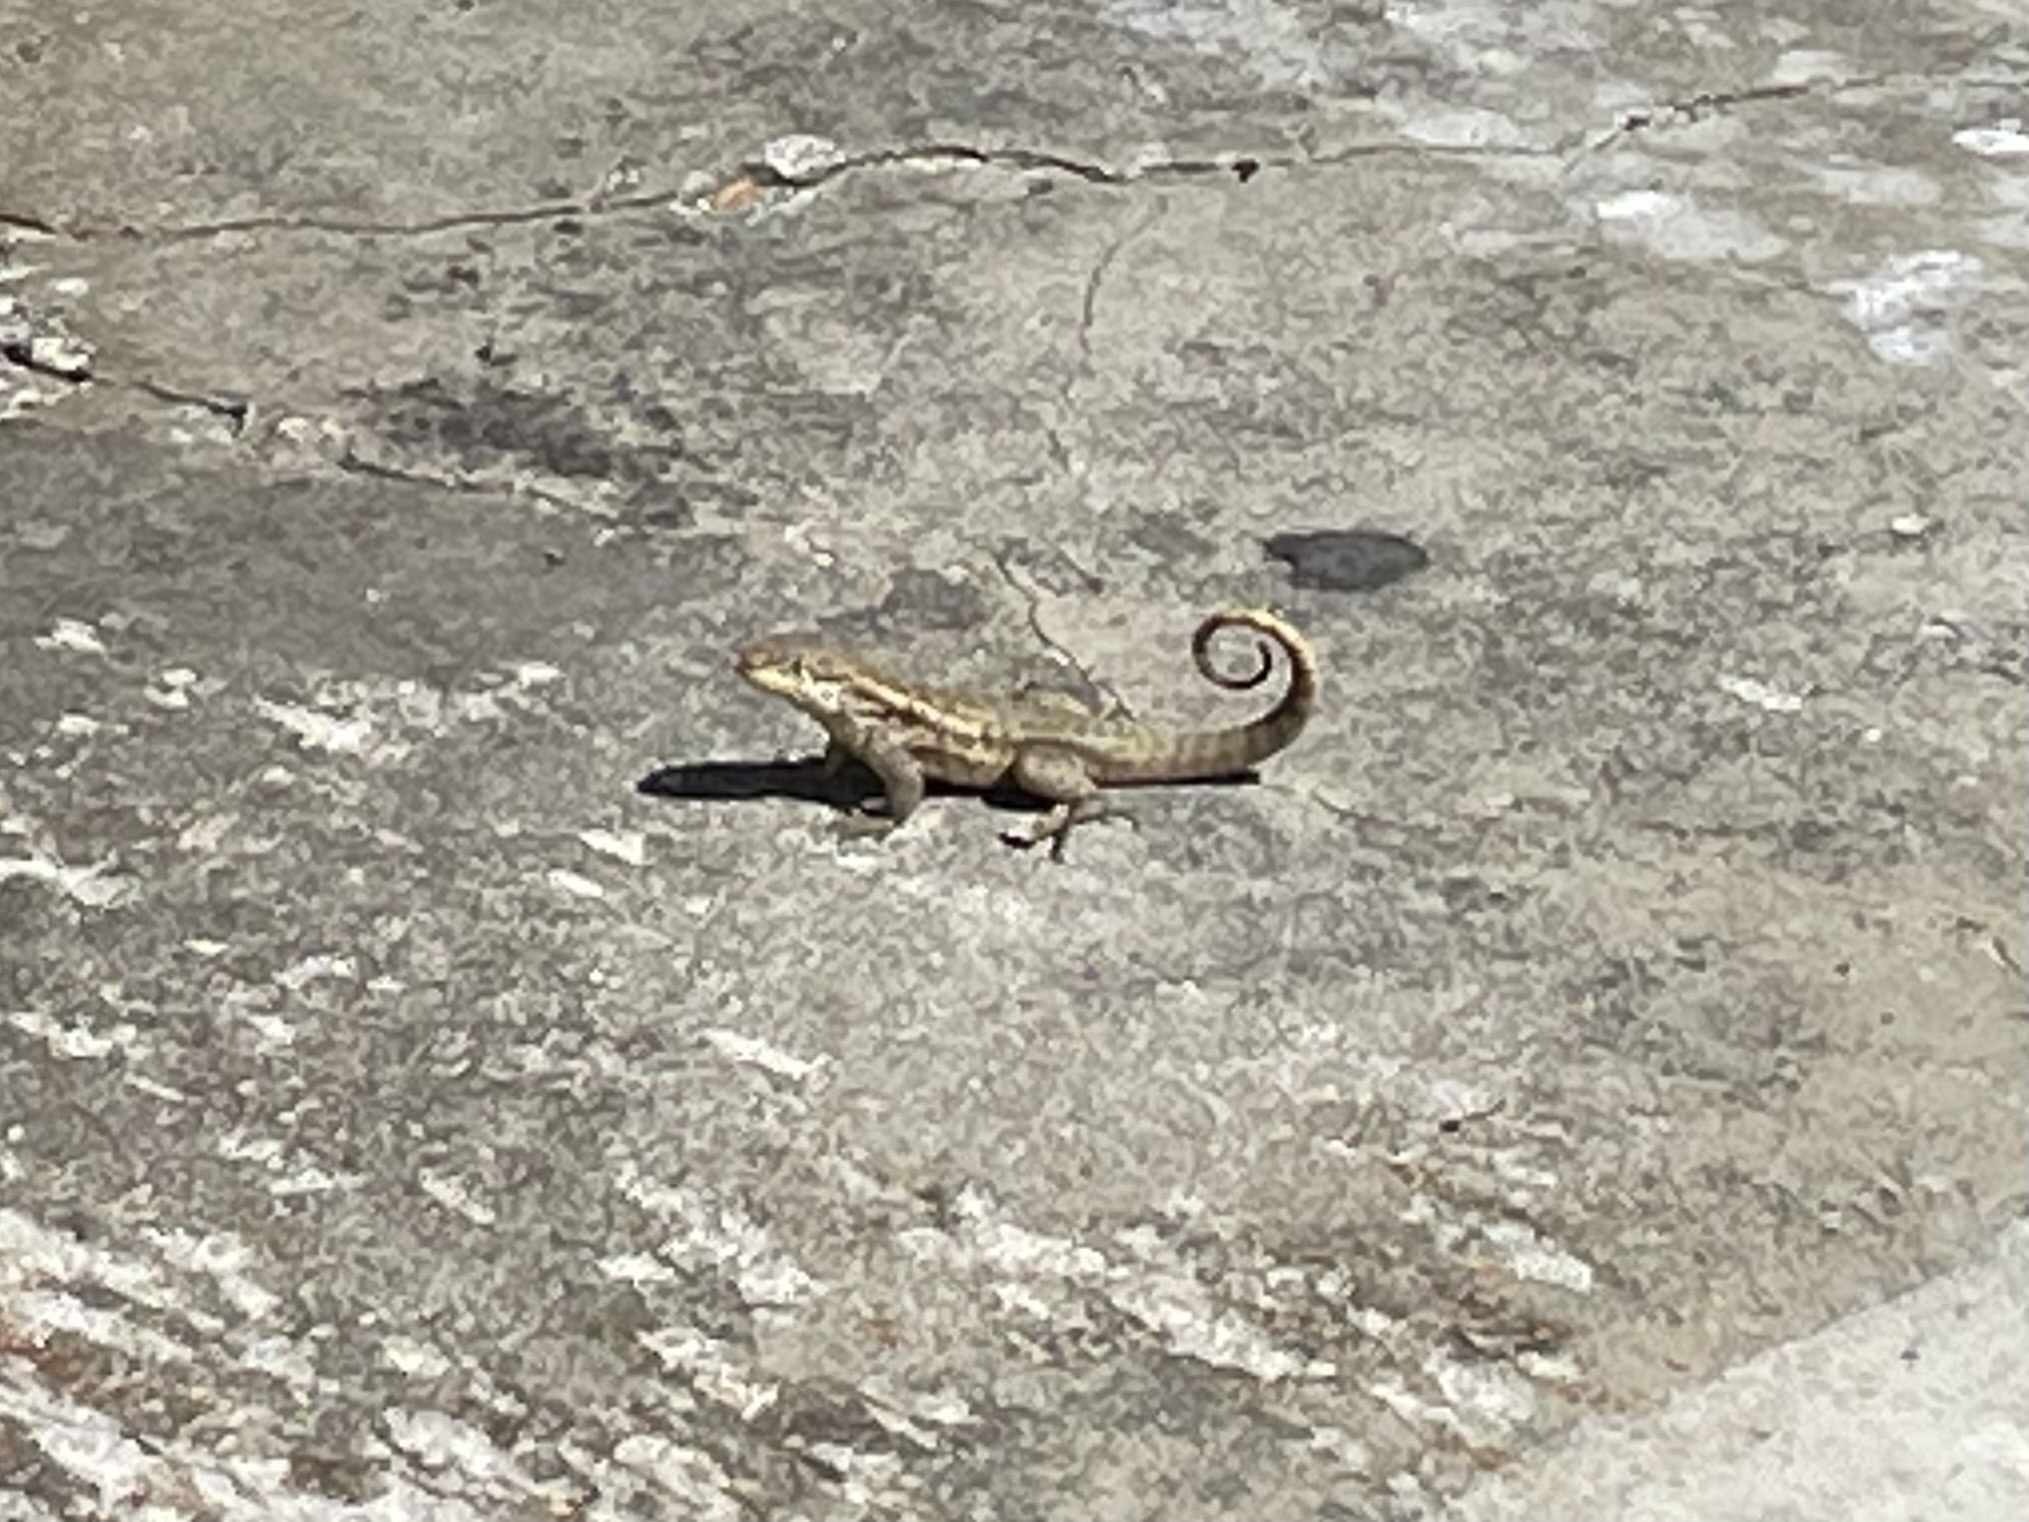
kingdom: Animalia
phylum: Chordata
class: Squamata
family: Leiocephalidae
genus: Leiocephalus
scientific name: Leiocephalus carinatus
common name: Northern curly-tailed lizard
